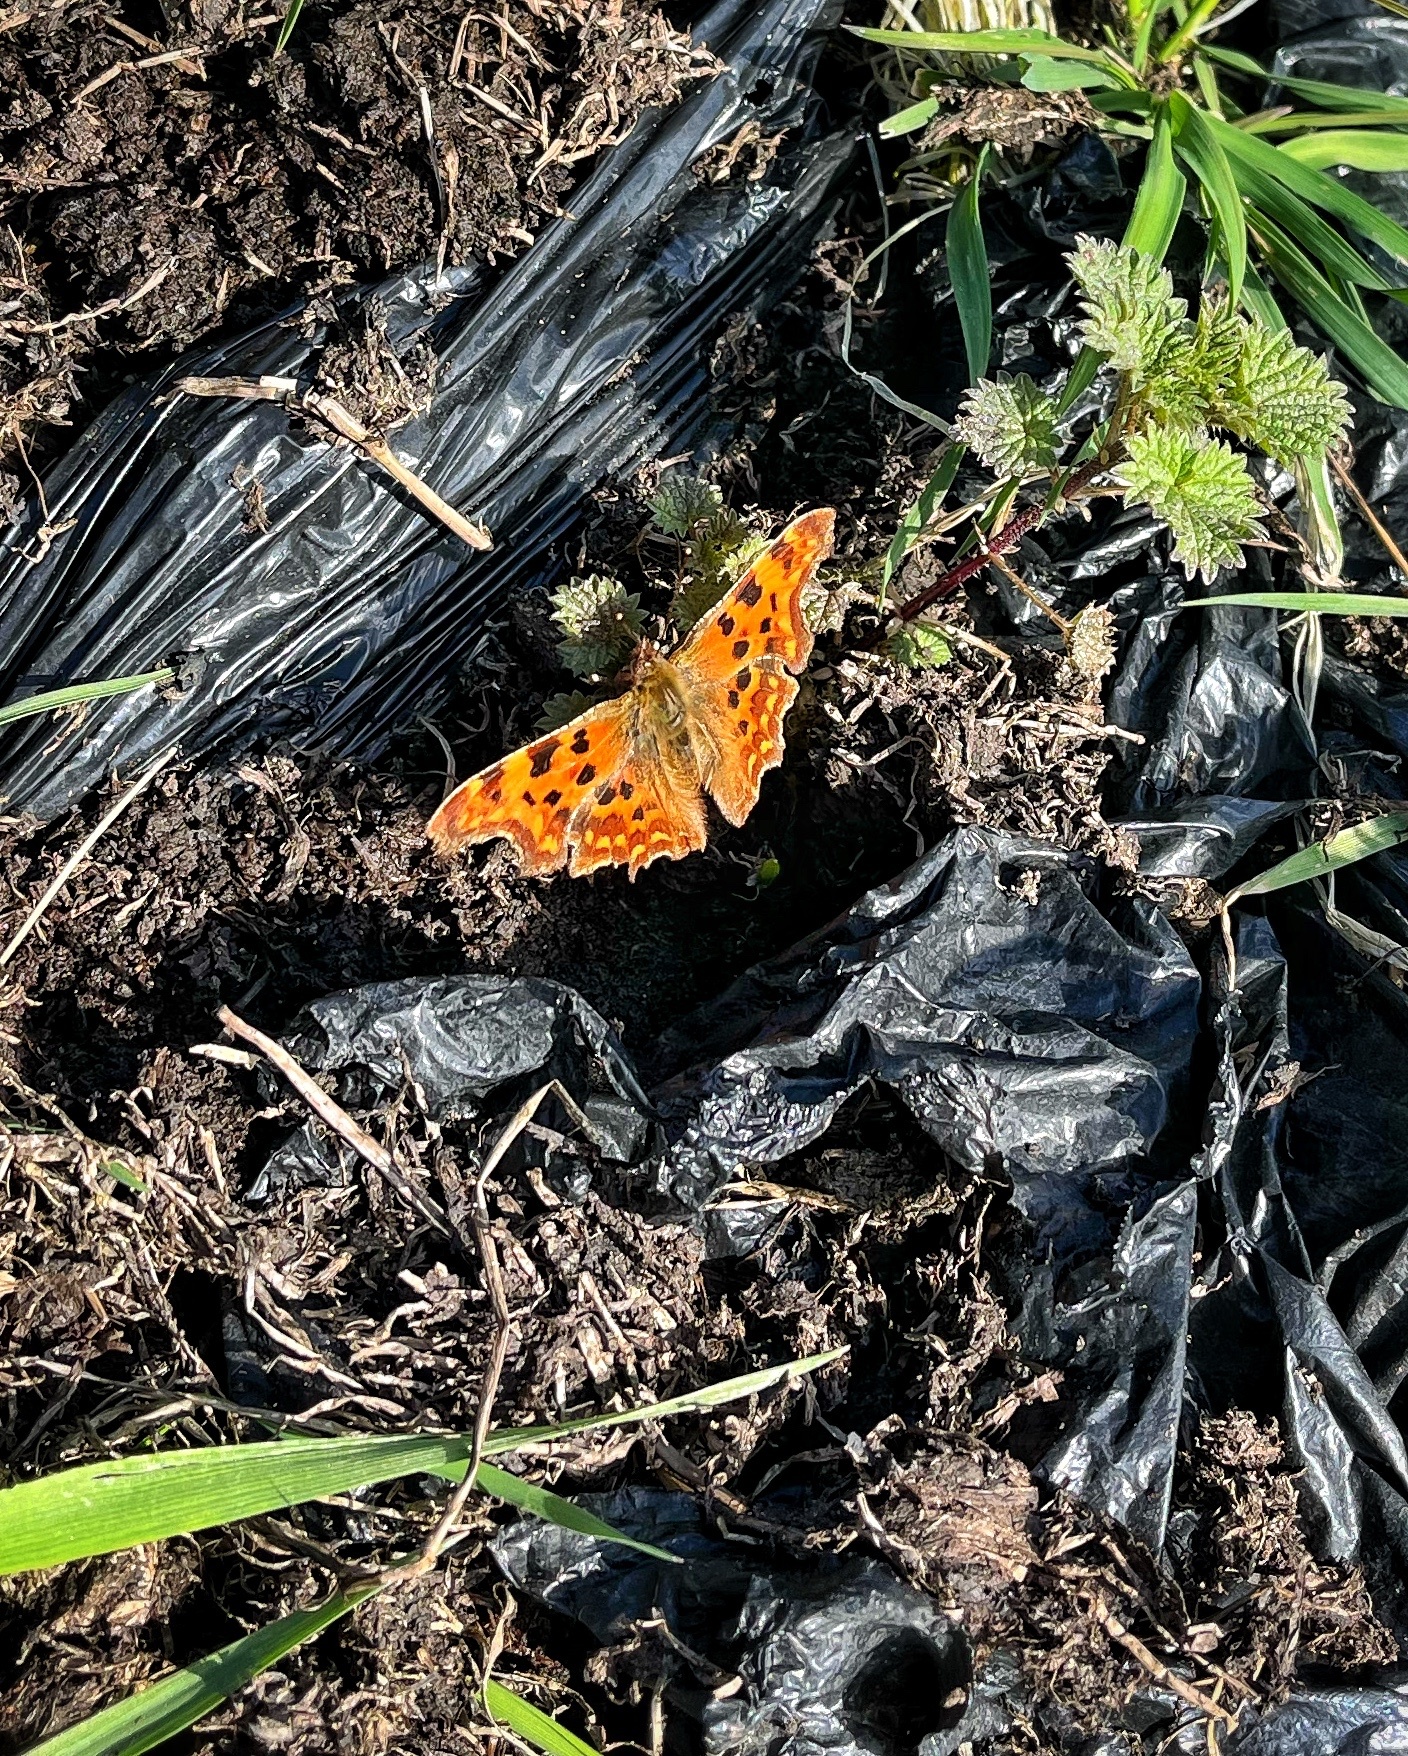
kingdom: Animalia
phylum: Arthropoda
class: Insecta
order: Lepidoptera
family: Nymphalidae
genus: Polygonia
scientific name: Polygonia c-album
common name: Comma
